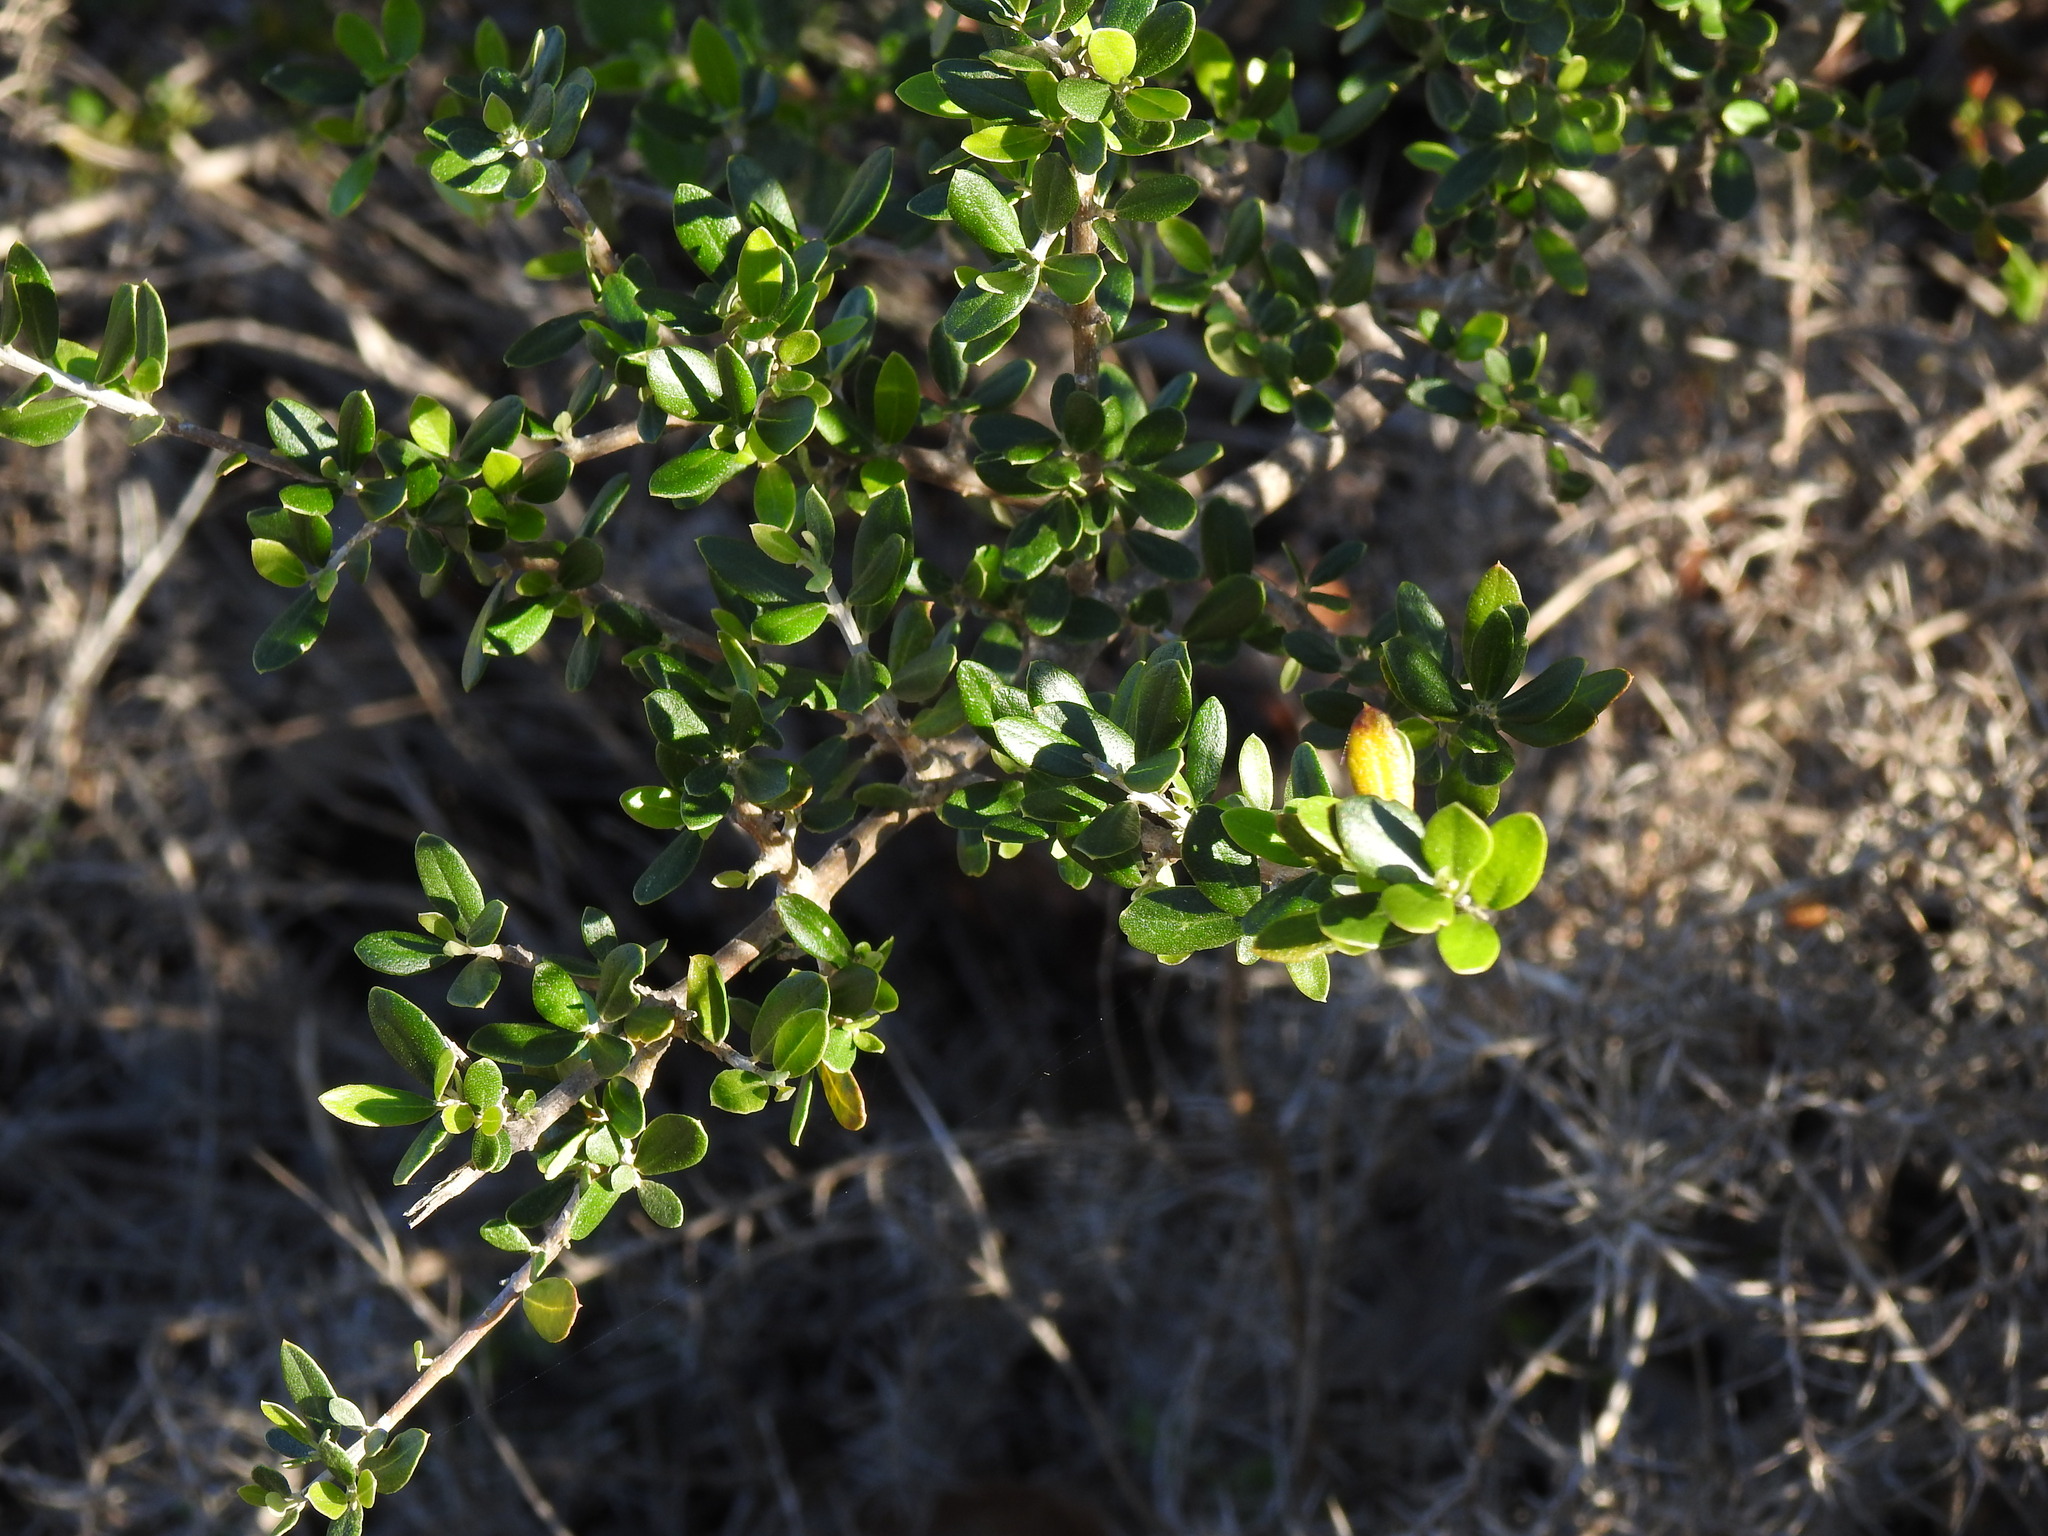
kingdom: Plantae
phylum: Tracheophyta
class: Magnoliopsida
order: Lamiales
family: Oleaceae
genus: Olea
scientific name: Olea europaea
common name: Olive
